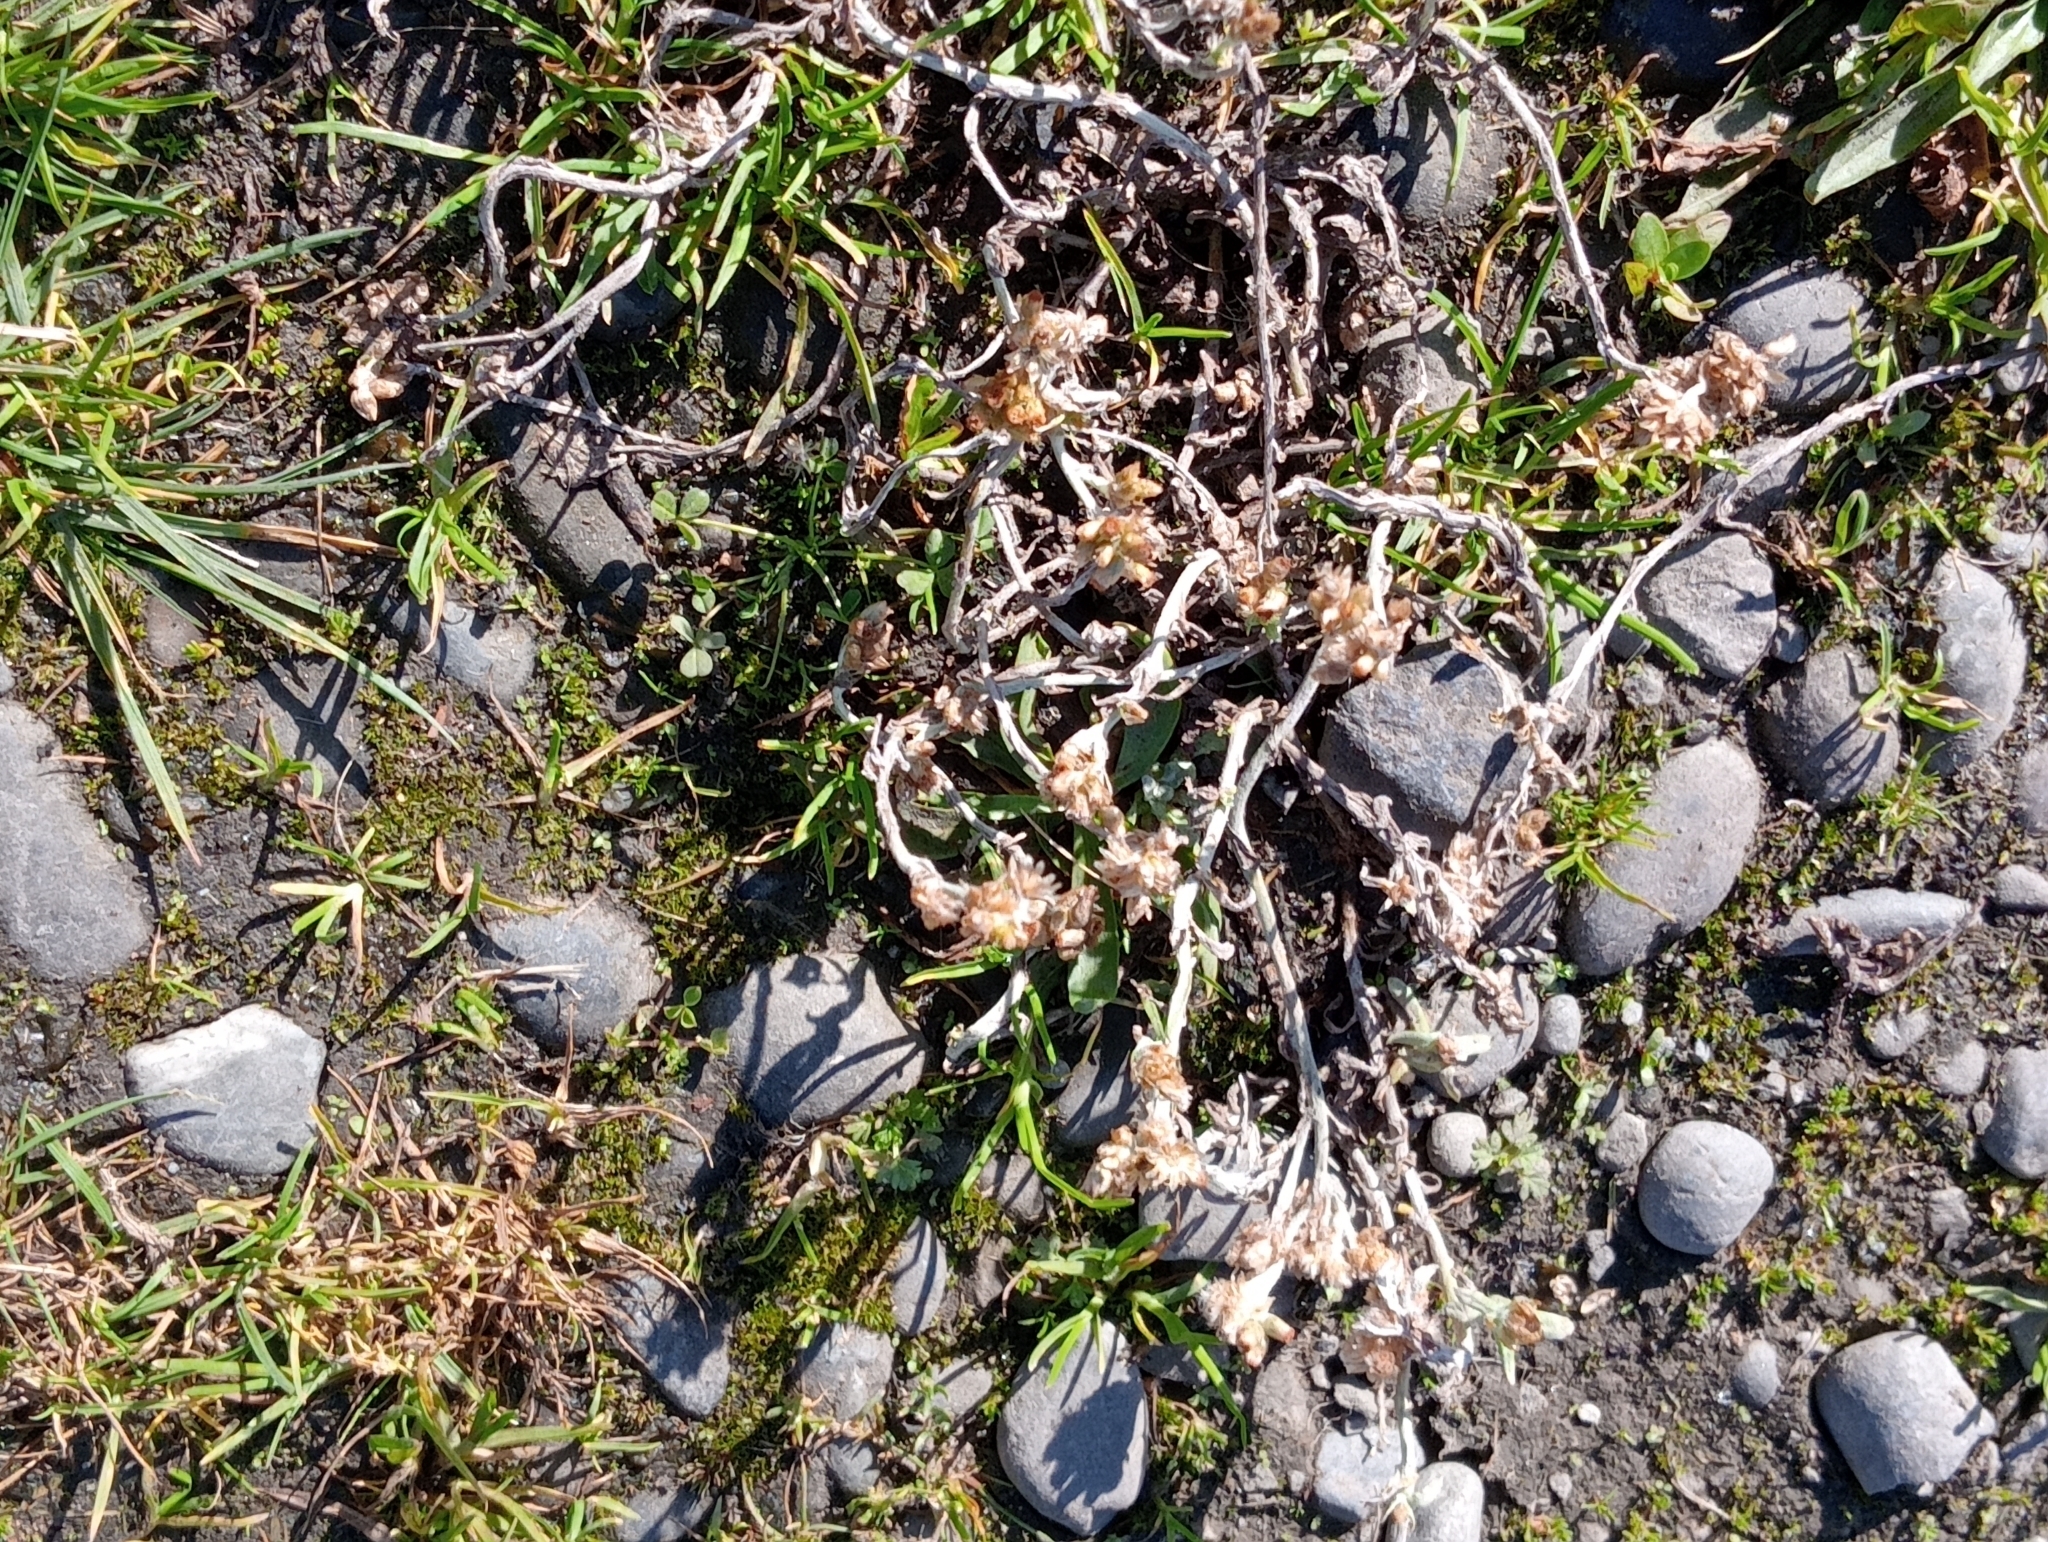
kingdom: Plantae
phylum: Tracheophyta
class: Magnoliopsida
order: Asterales
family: Asteraceae
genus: Helichrysum
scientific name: Helichrysum luteoalbum
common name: Daisy
